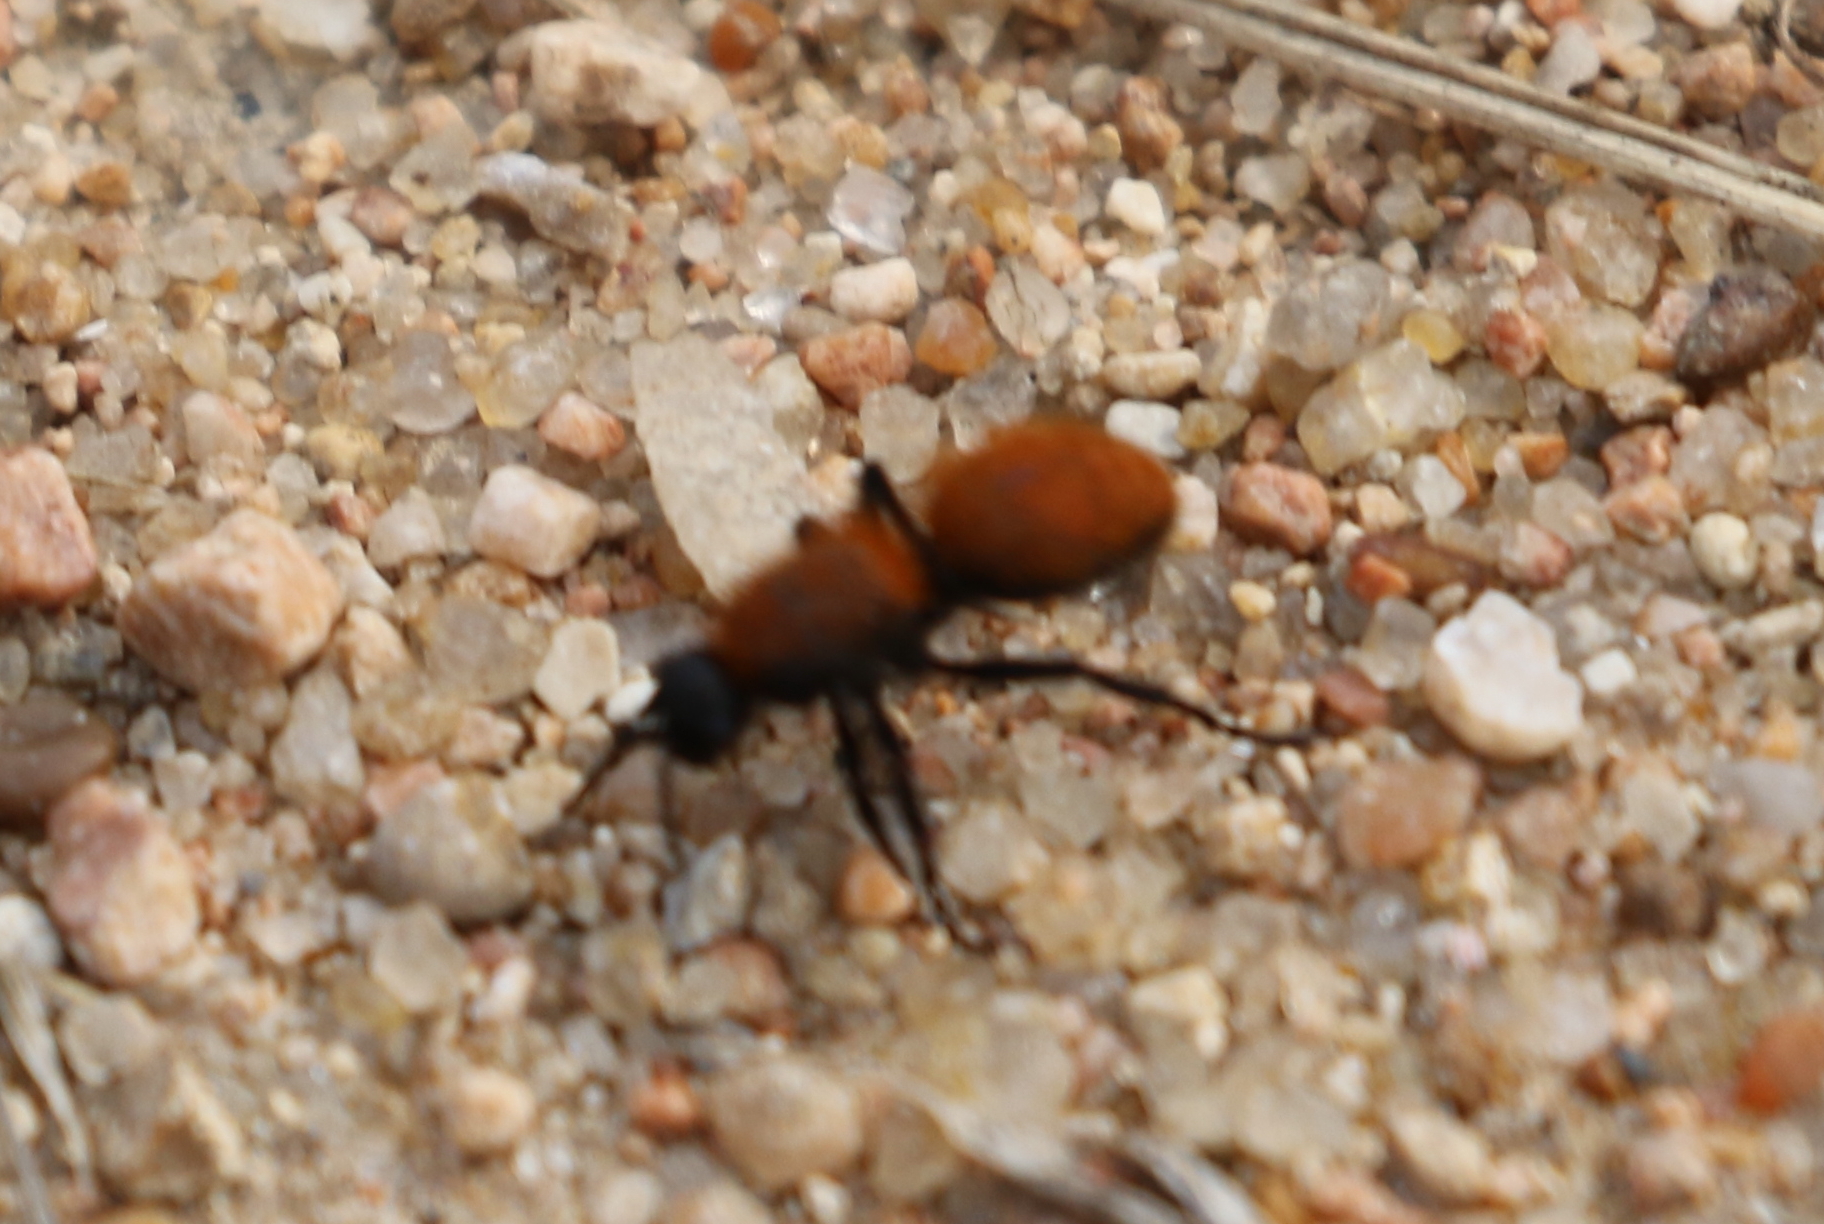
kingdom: Animalia
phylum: Arthropoda
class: Insecta
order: Hymenoptera
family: Mutillidae
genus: Dasymutilla
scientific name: Dasymutilla
